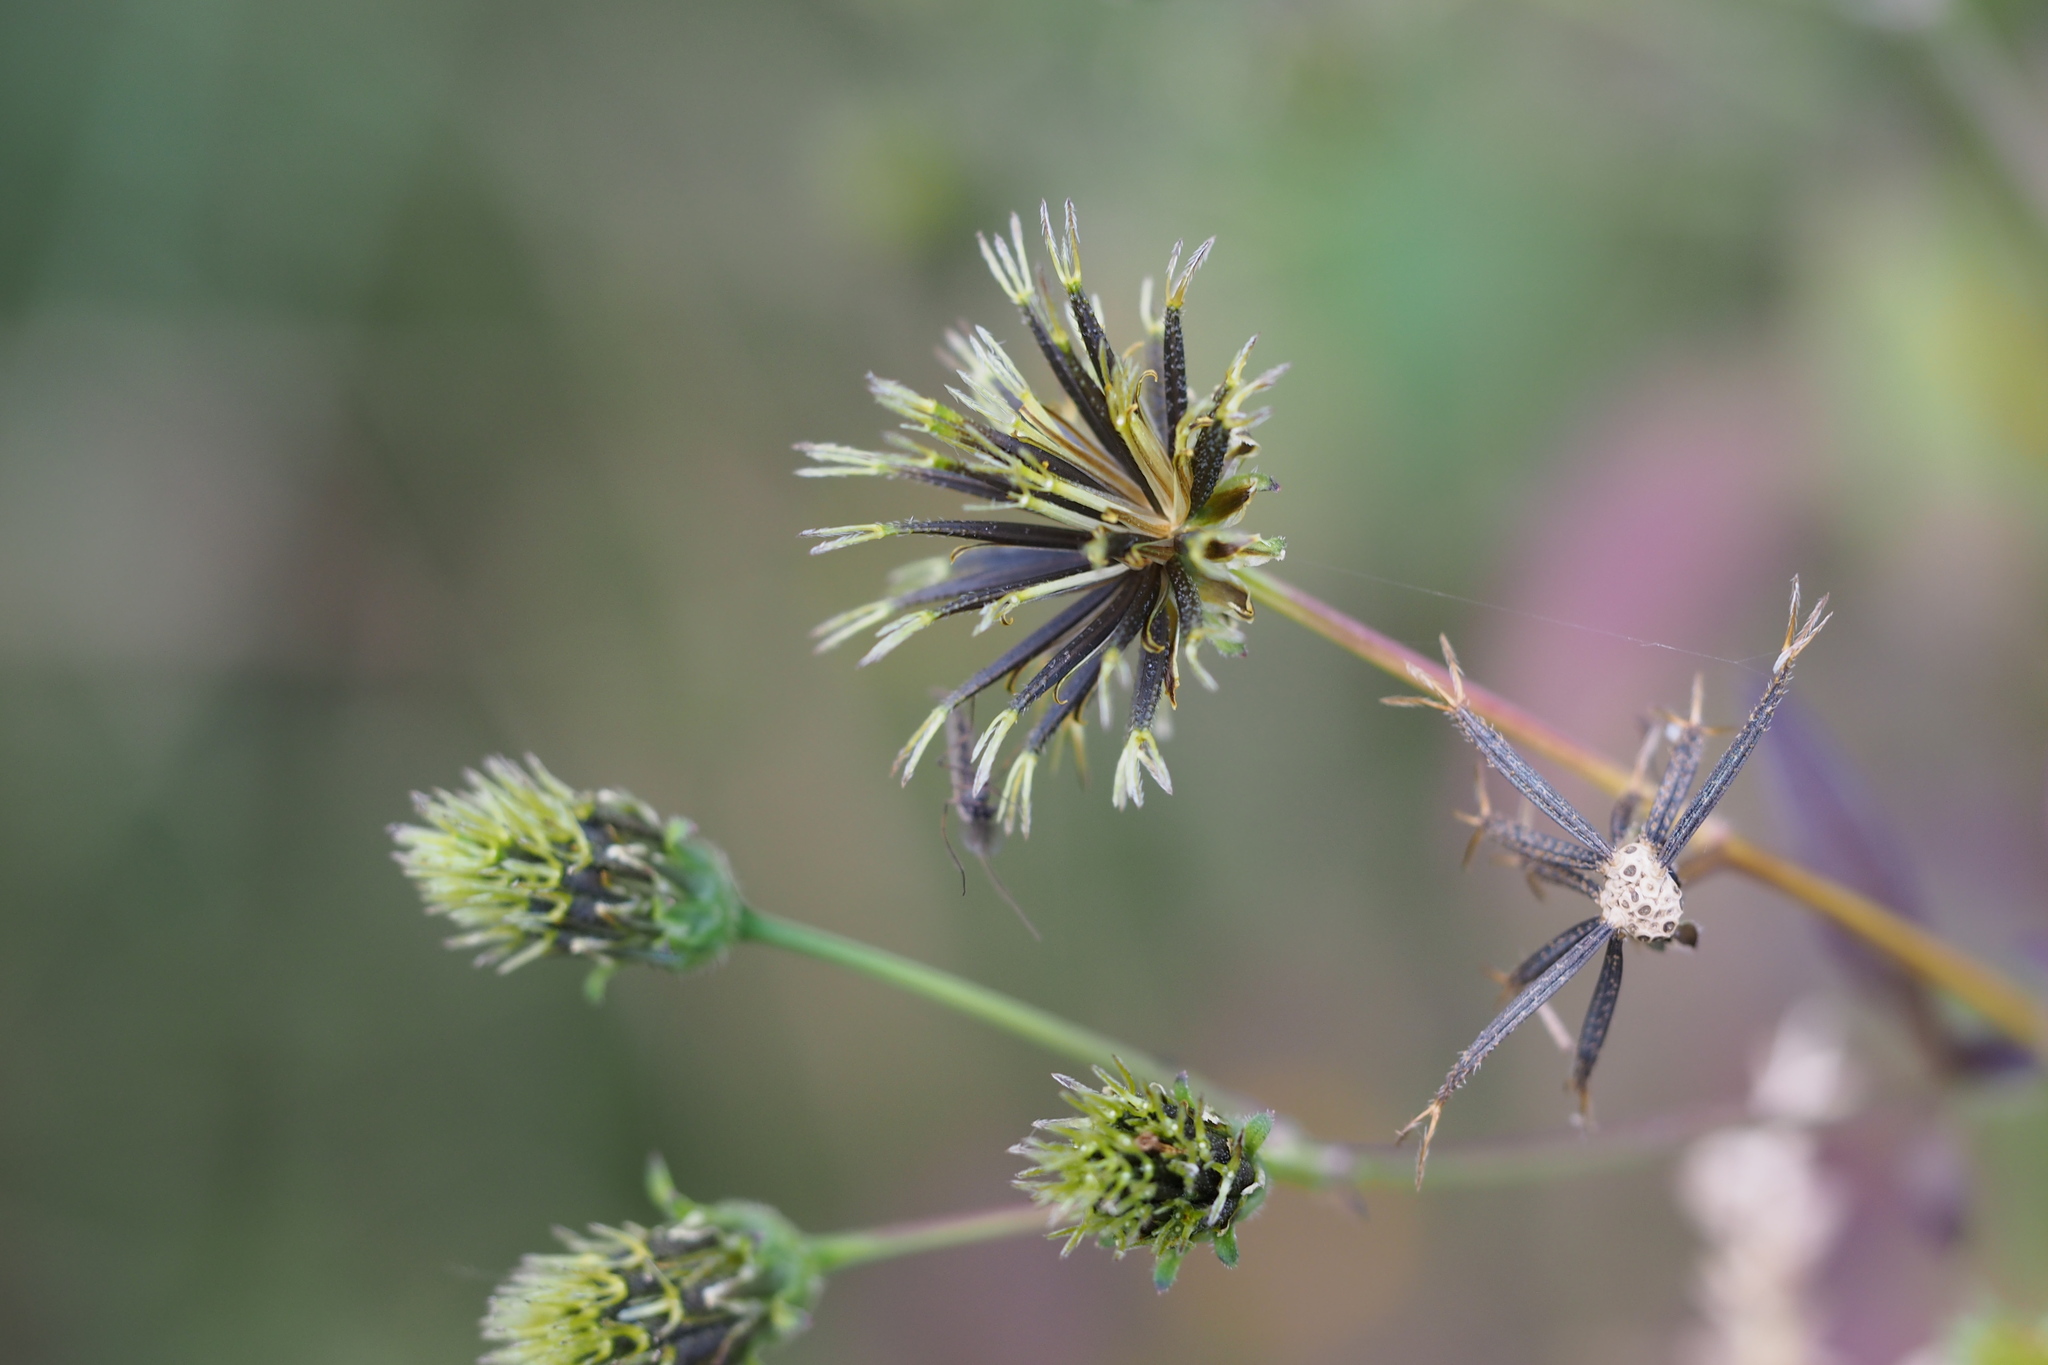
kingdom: Plantae
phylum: Tracheophyta
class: Magnoliopsida
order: Asterales
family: Asteraceae
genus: Bidens
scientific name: Bidens pilosa
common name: Black-jack
